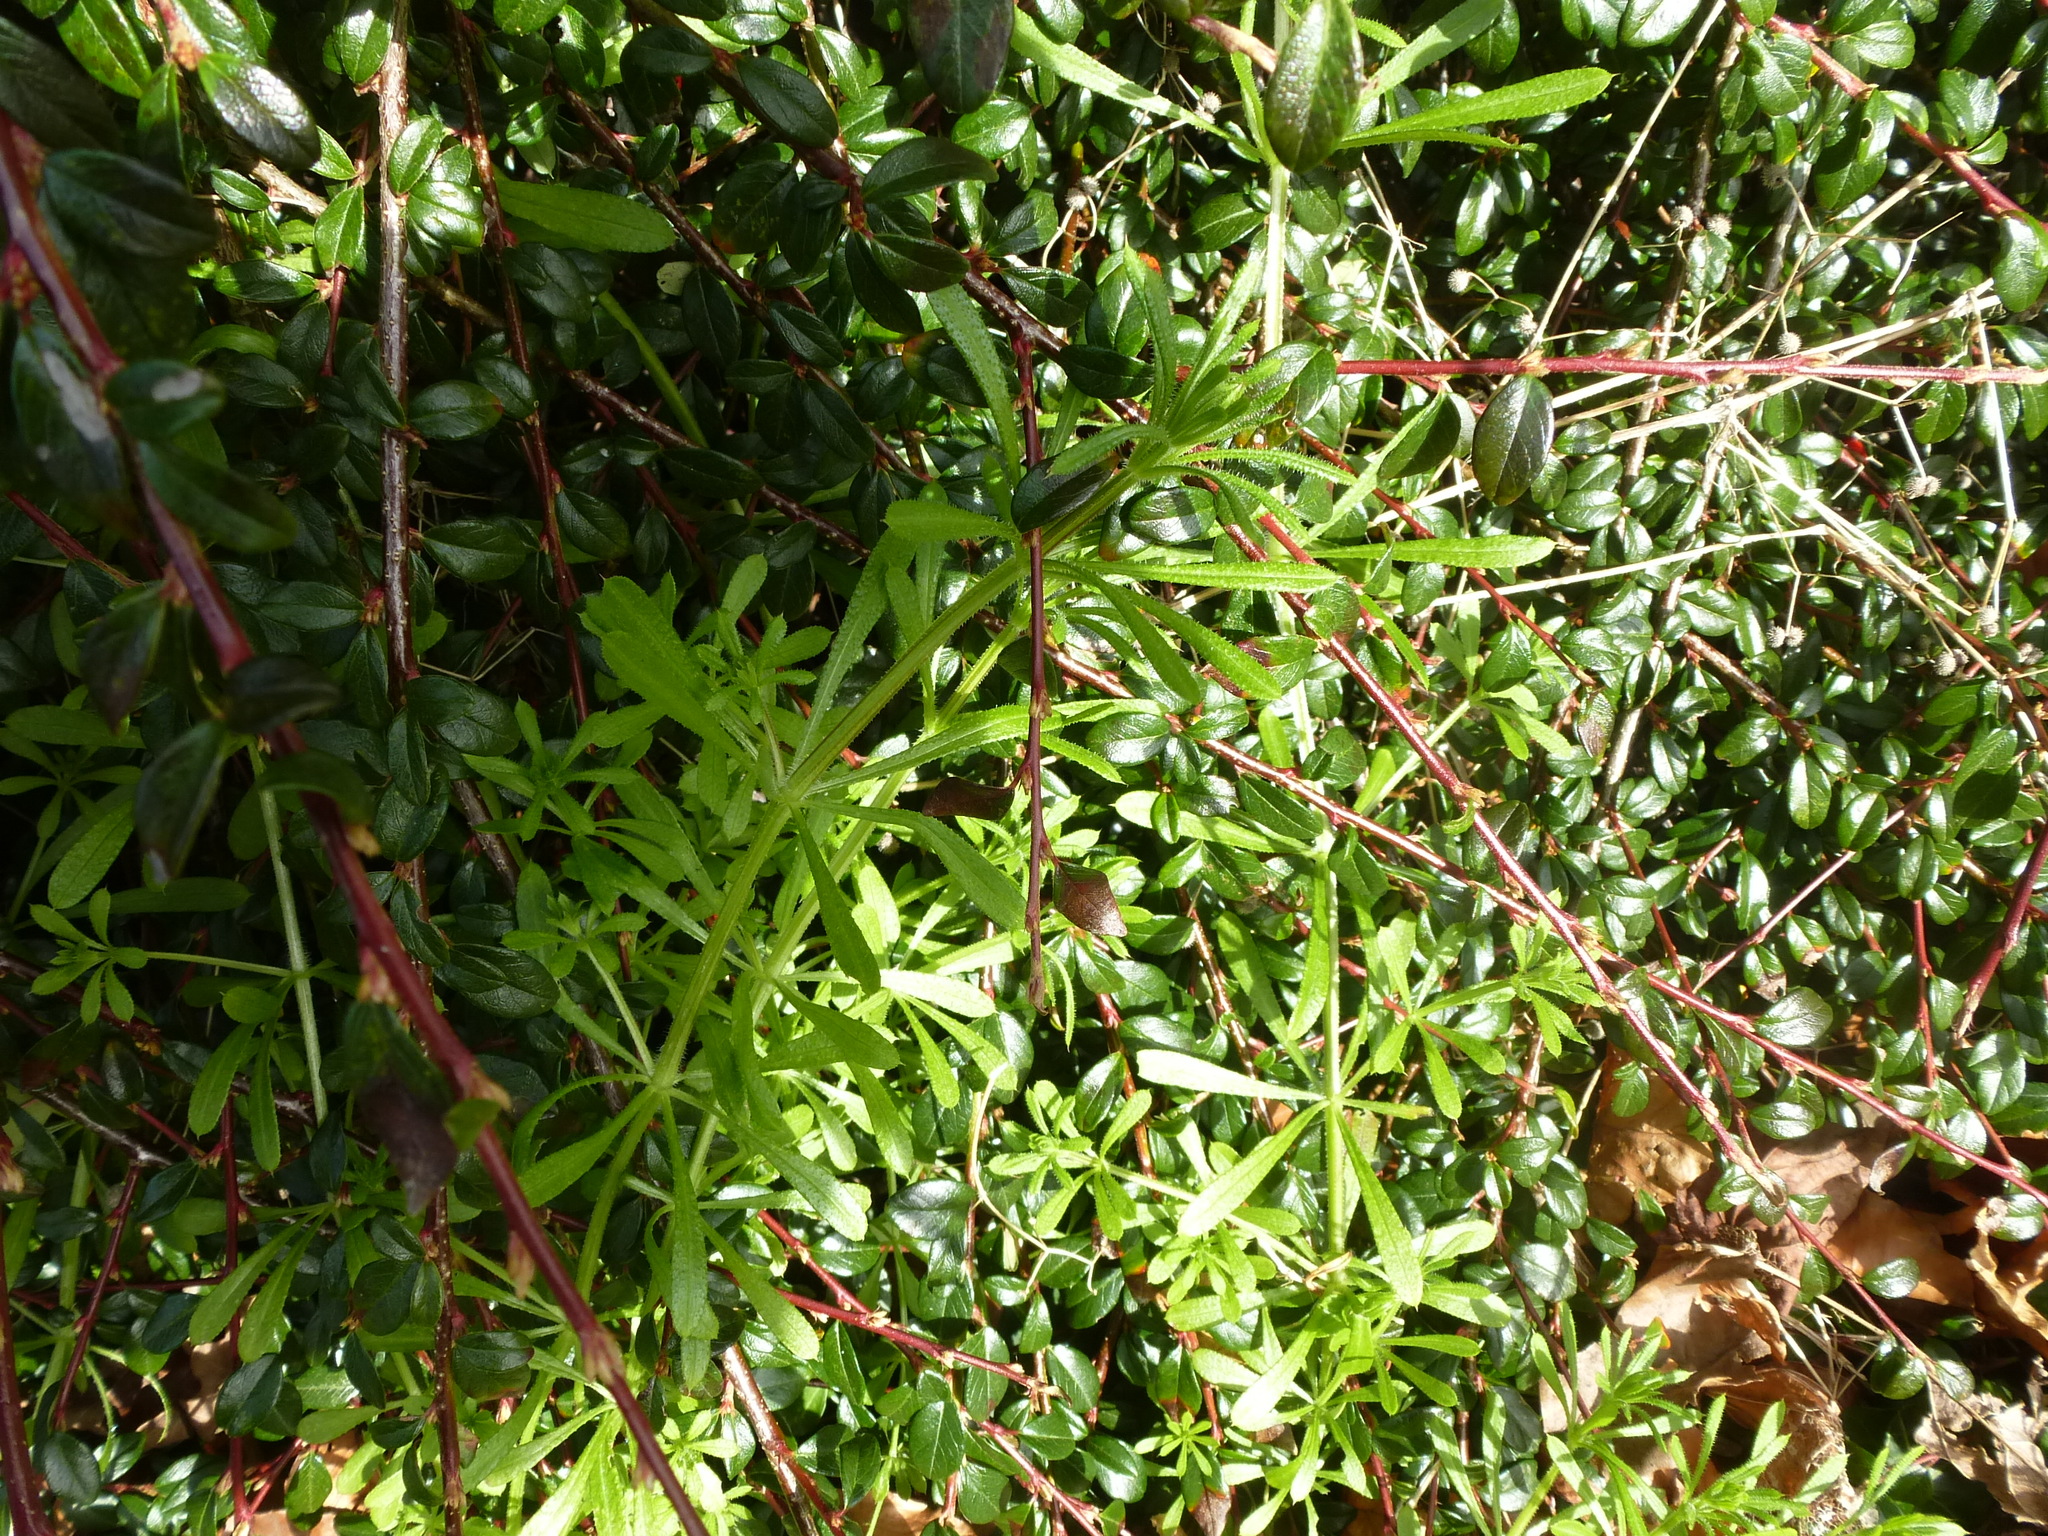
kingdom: Plantae
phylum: Tracheophyta
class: Magnoliopsida
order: Gentianales
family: Rubiaceae
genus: Galium
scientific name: Galium aparine
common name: Cleavers
